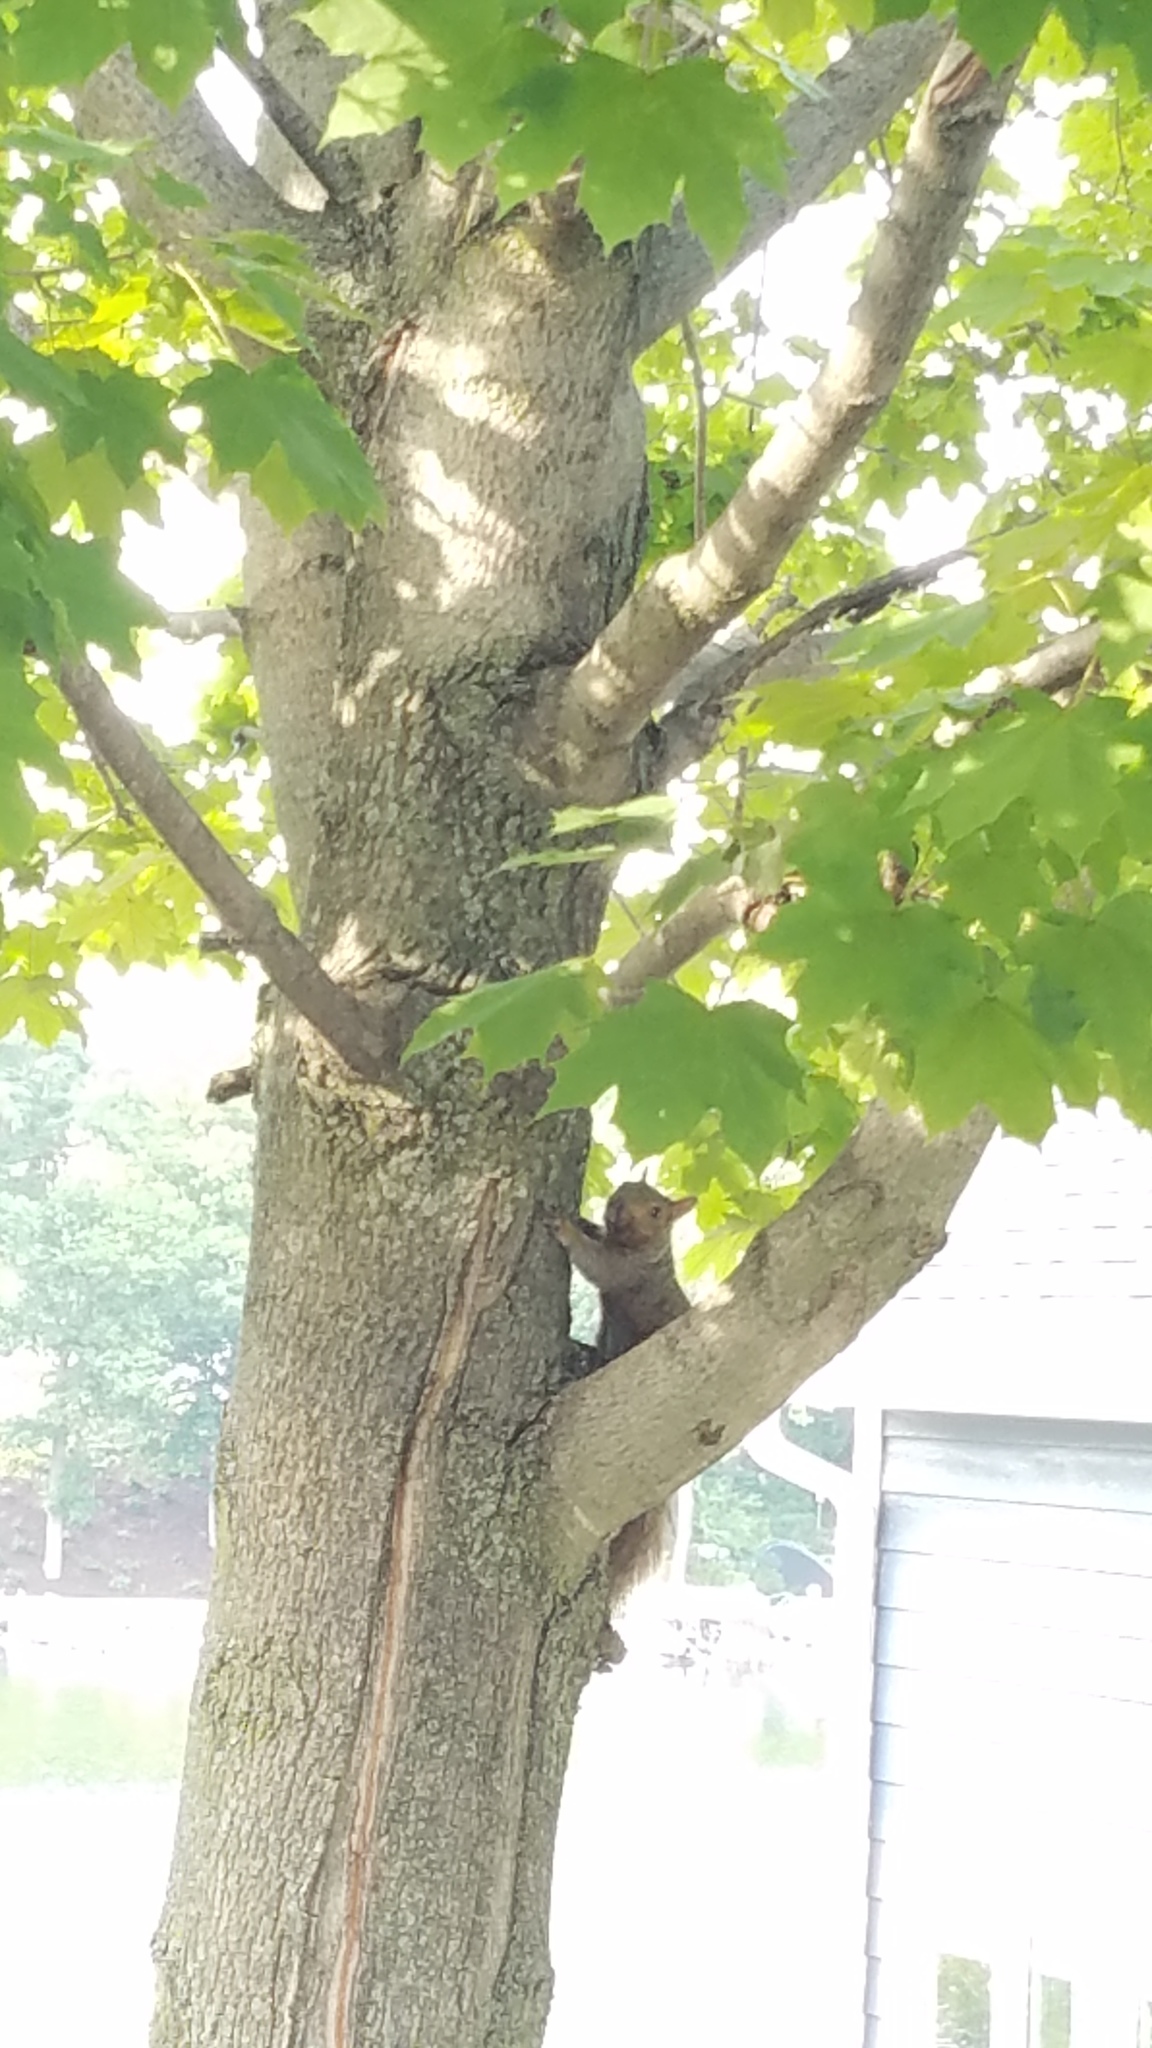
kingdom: Animalia
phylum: Chordata
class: Mammalia
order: Rodentia
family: Sciuridae
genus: Sciurus
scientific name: Sciurus carolinensis
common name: Eastern gray squirrel
